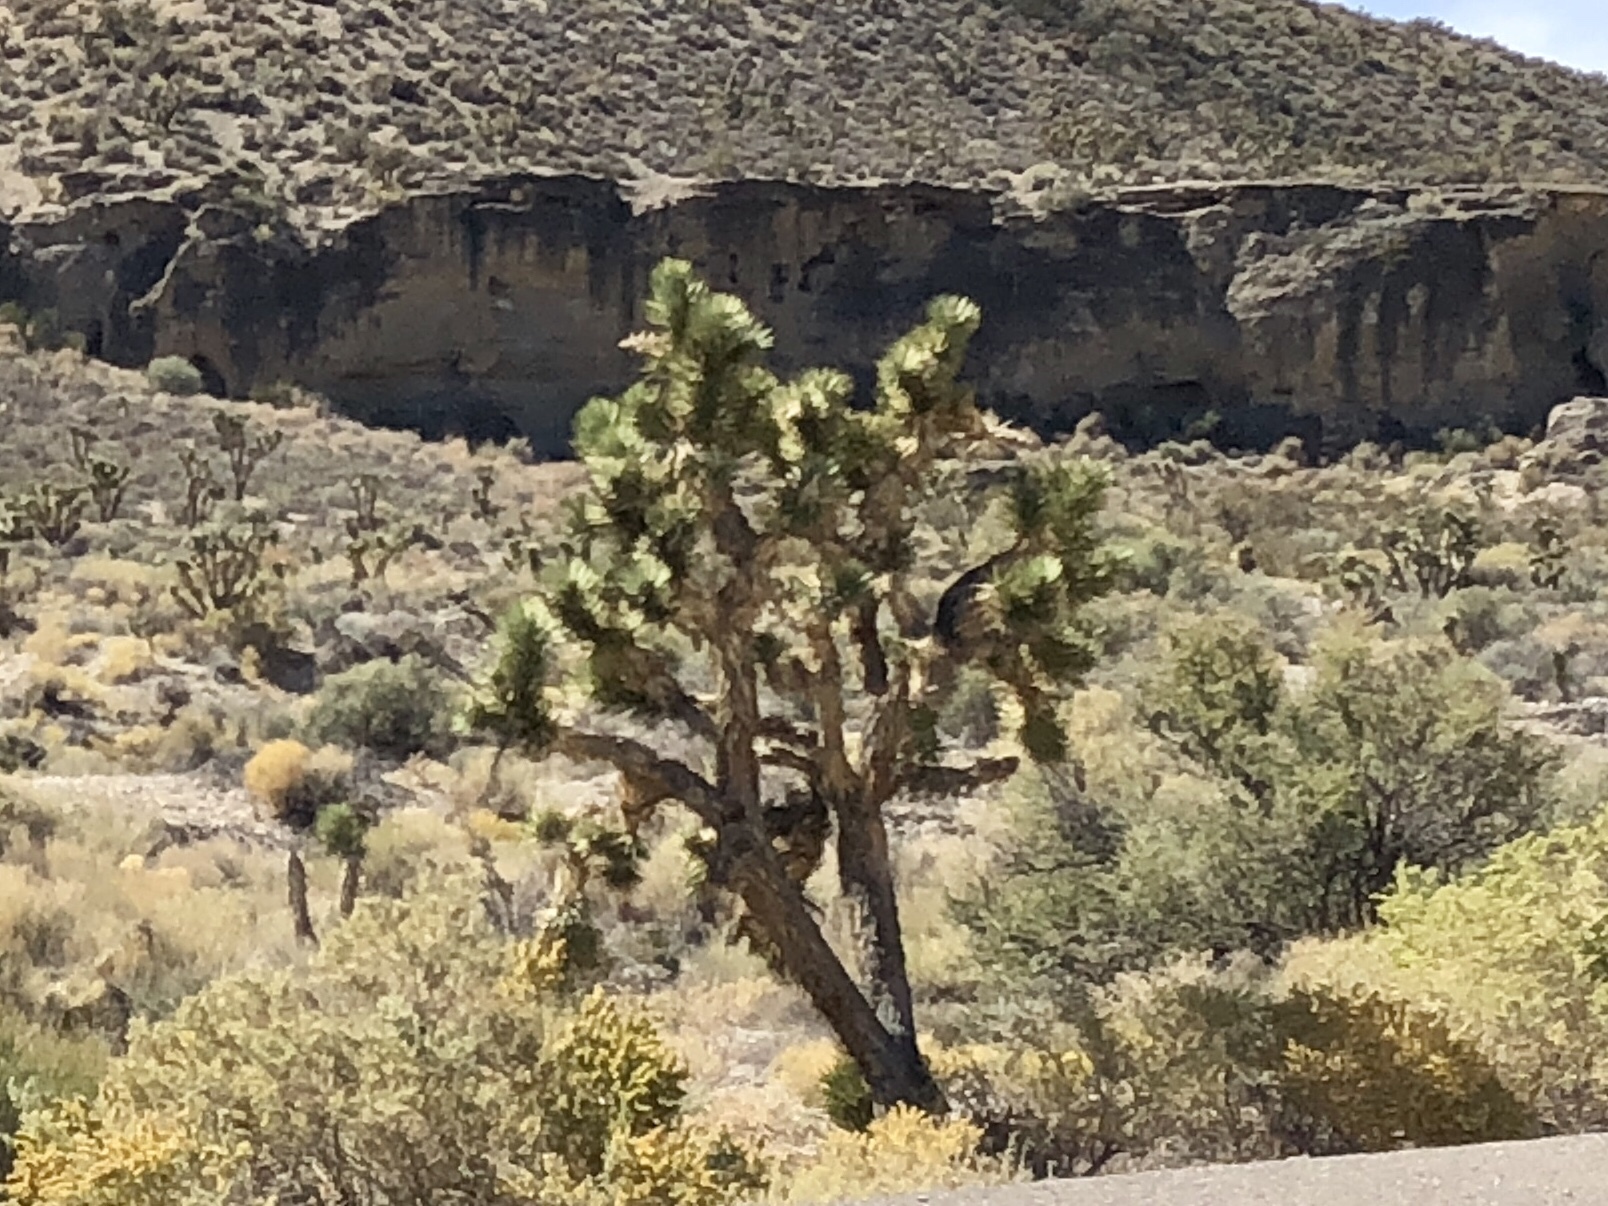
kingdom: Plantae
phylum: Tracheophyta
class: Liliopsida
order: Asparagales
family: Asparagaceae
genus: Yucca
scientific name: Yucca brevifolia
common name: Joshua tree
